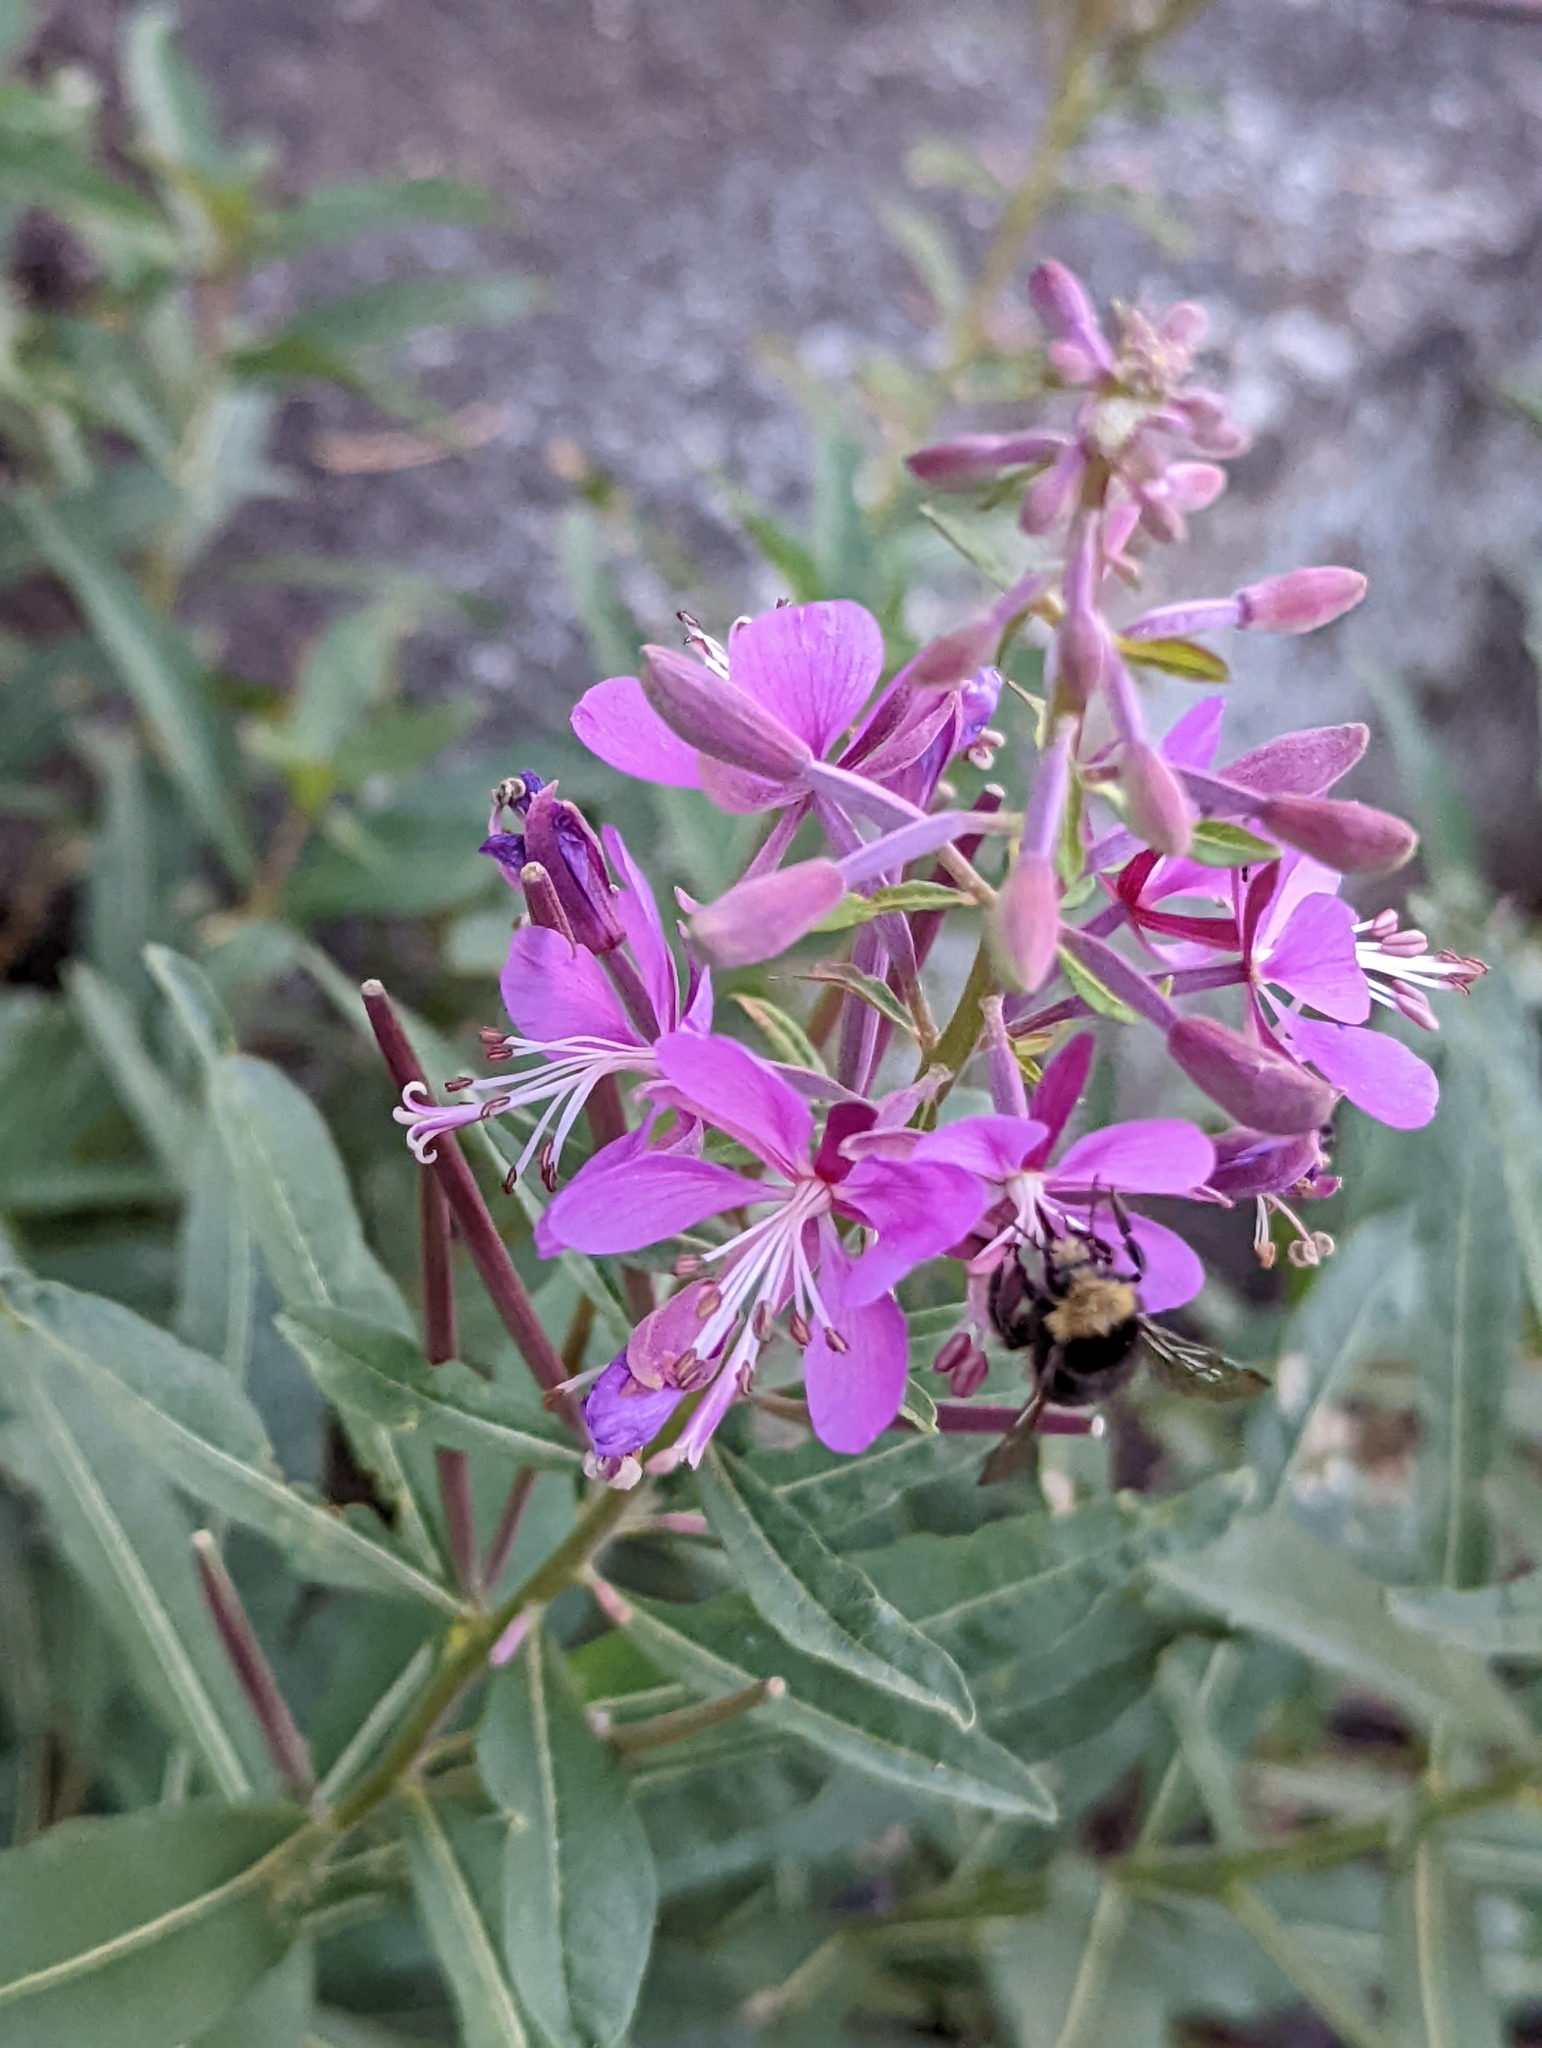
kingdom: Plantae
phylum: Tracheophyta
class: Magnoliopsida
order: Myrtales
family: Onagraceae
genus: Chamaenerion
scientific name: Chamaenerion angustifolium
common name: Fireweed
